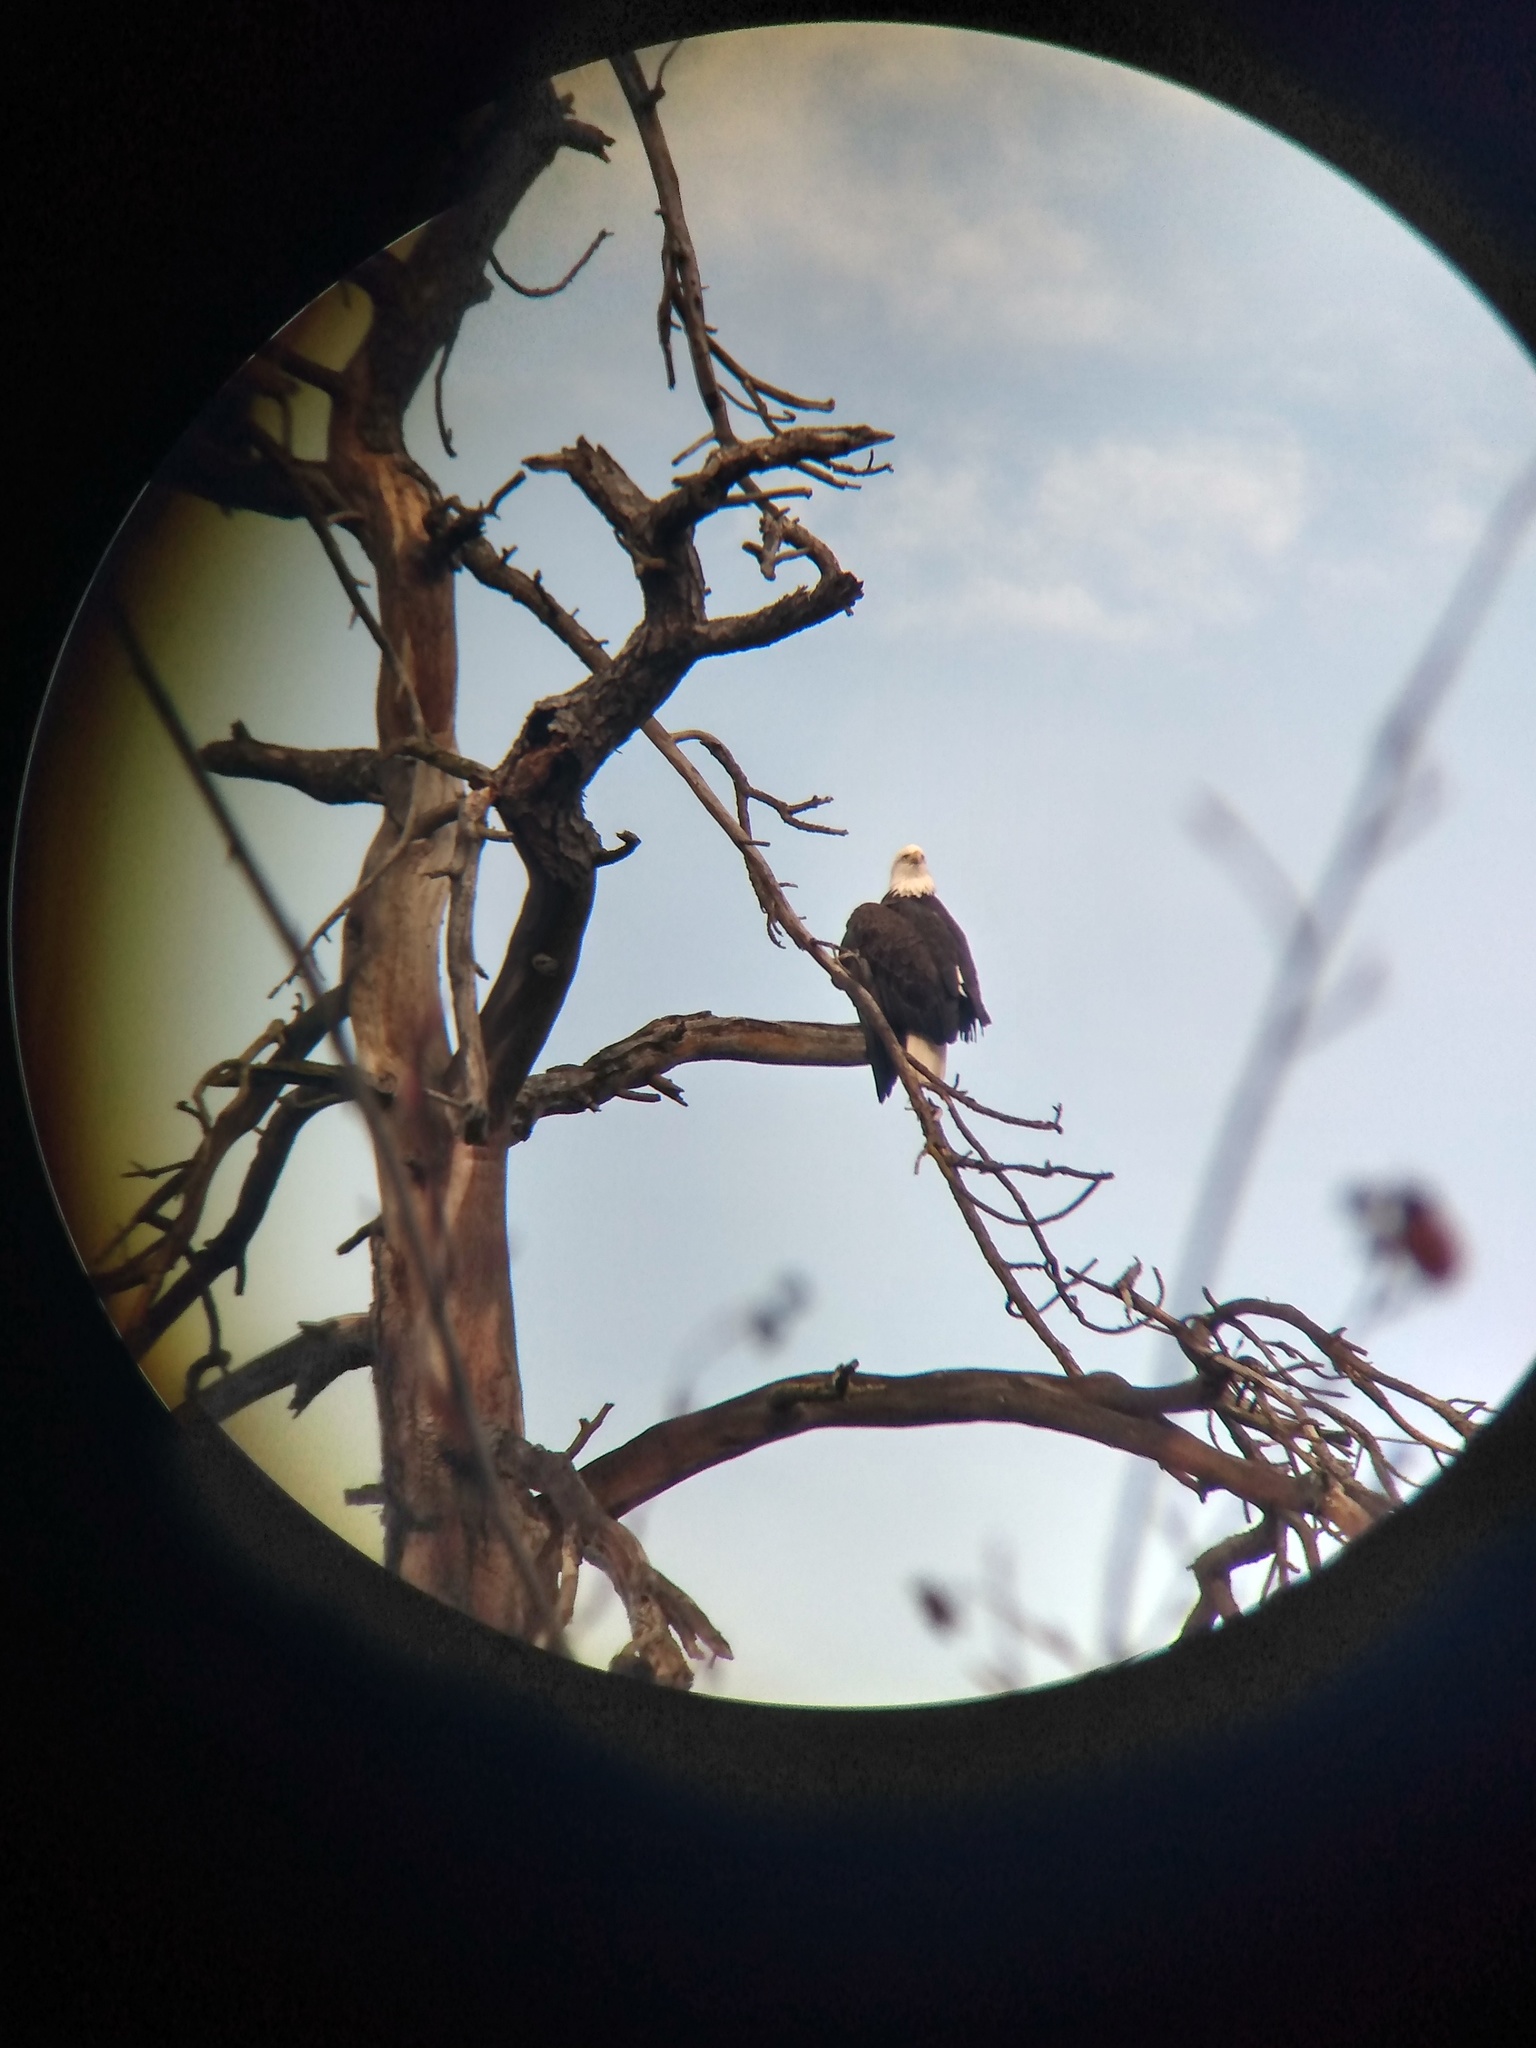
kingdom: Animalia
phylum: Chordata
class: Aves
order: Accipitriformes
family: Accipitridae
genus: Haliaeetus
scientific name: Haliaeetus leucocephalus
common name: Bald eagle
